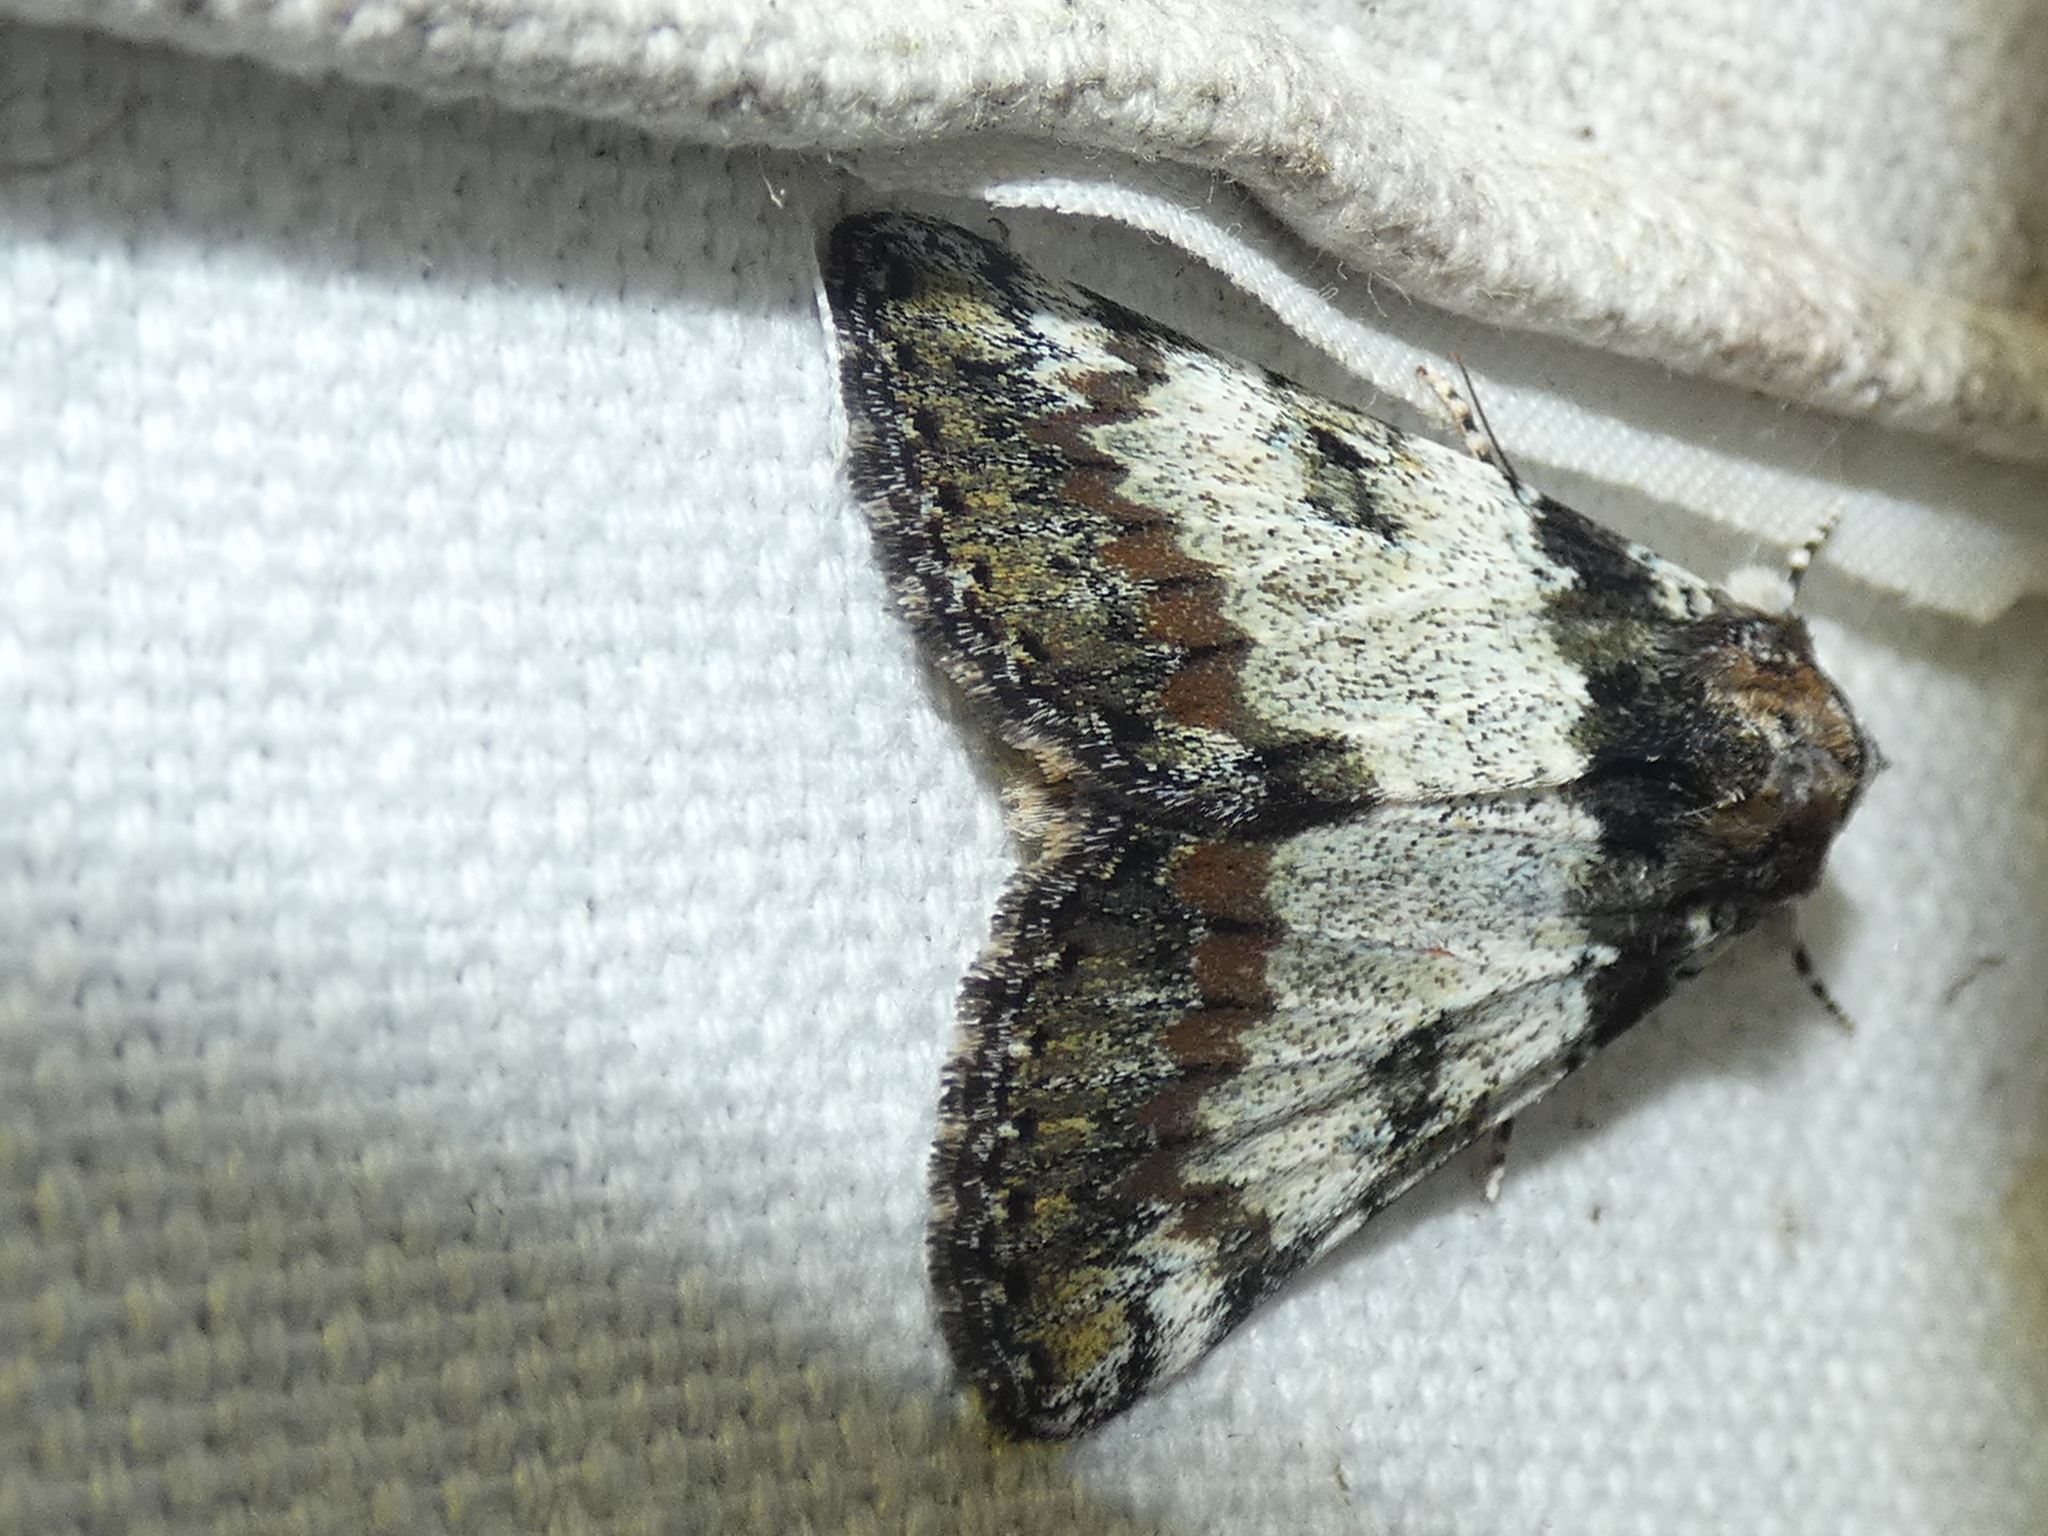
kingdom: Animalia
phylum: Arthropoda
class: Insecta
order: Lepidoptera
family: Erebidae
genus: Catocala
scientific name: Catocala connubialis
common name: Connubial underwing
